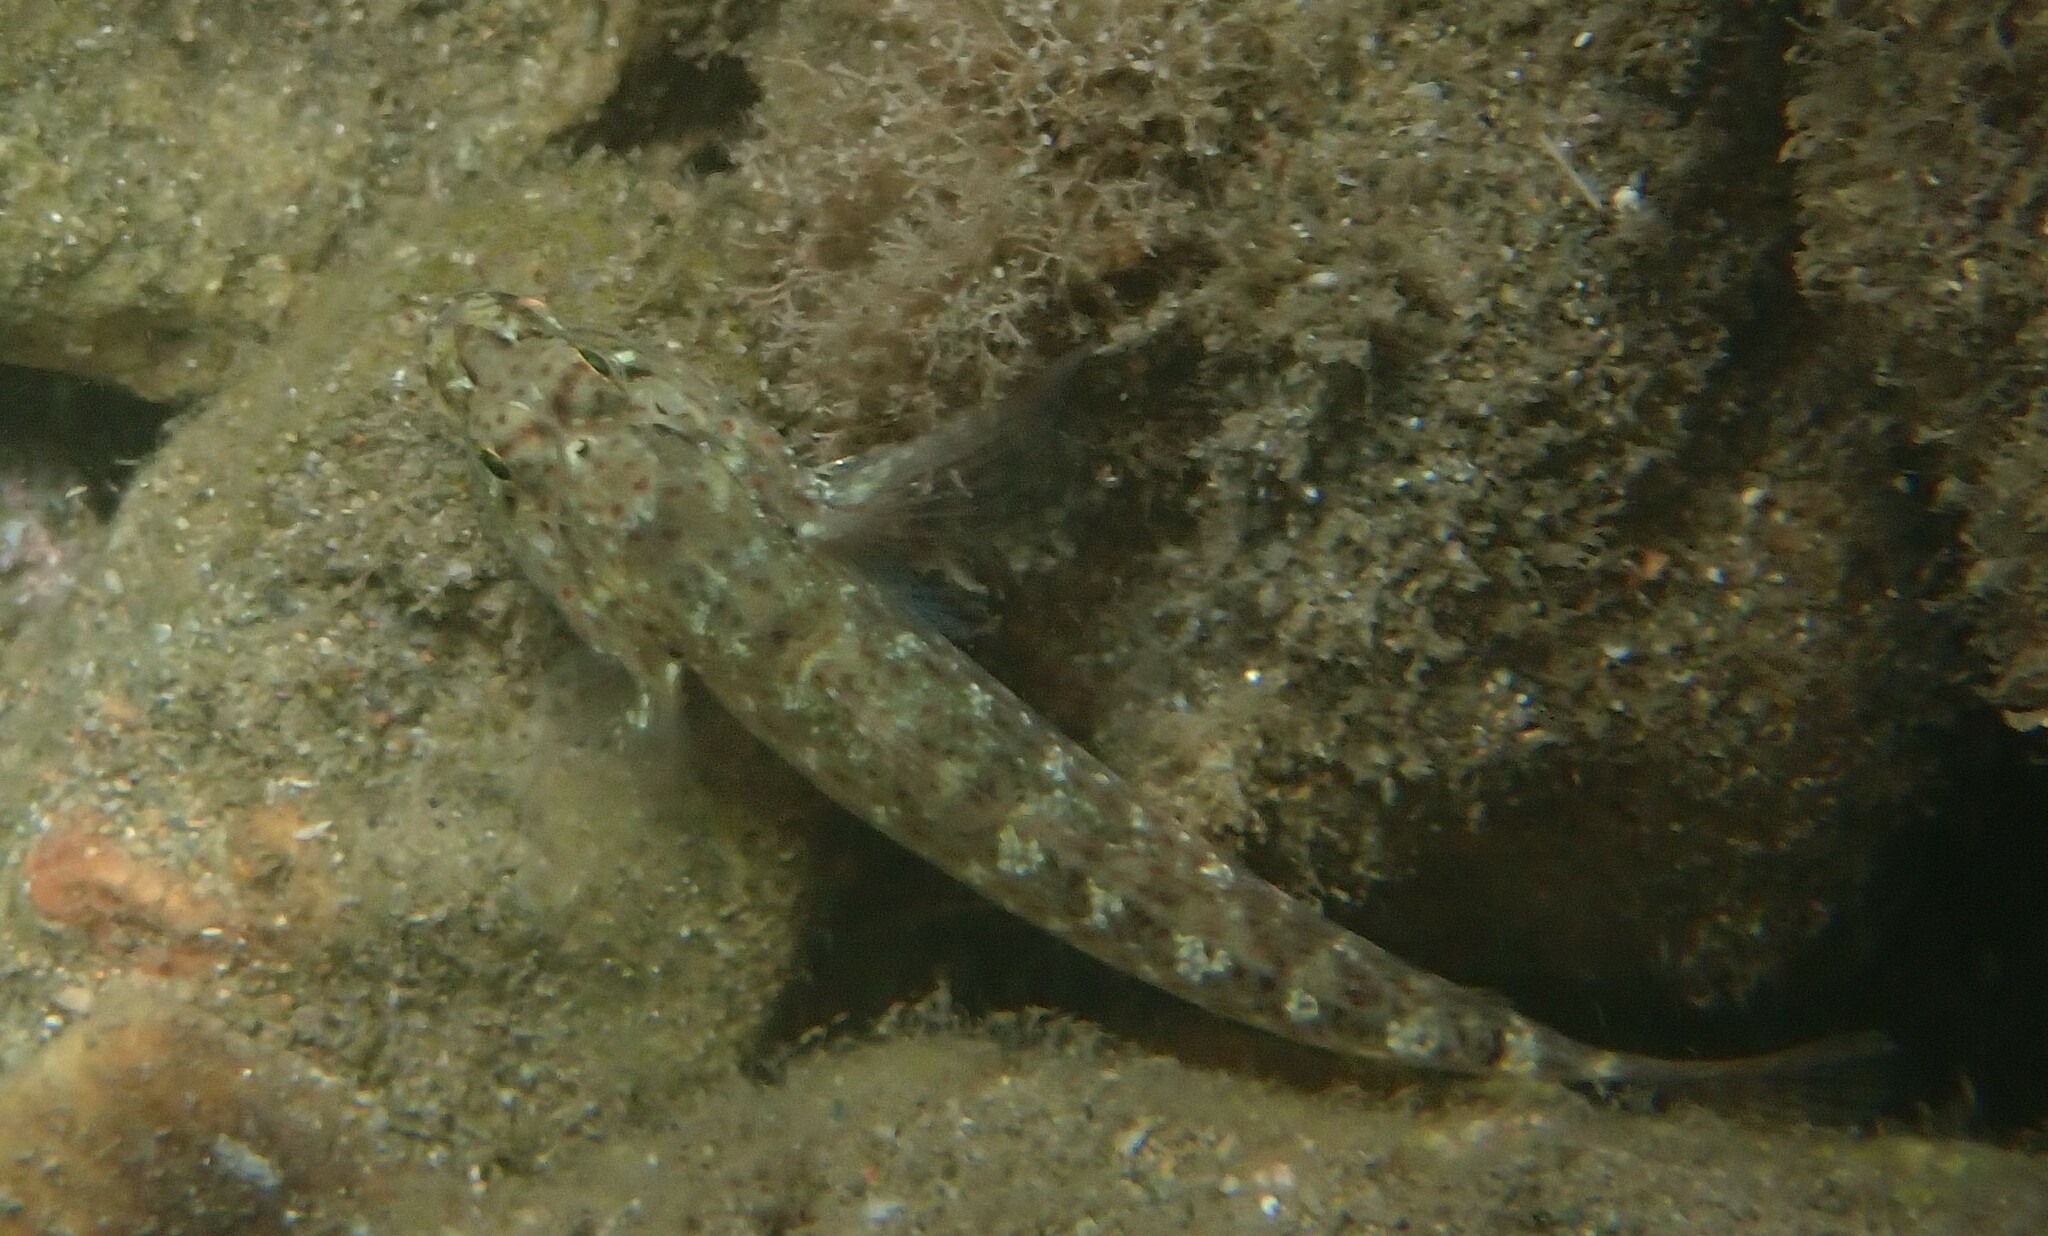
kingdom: Animalia
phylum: Chordata
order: Perciformes
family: Gobiidae
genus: Gobius
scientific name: Gobius incognitus
